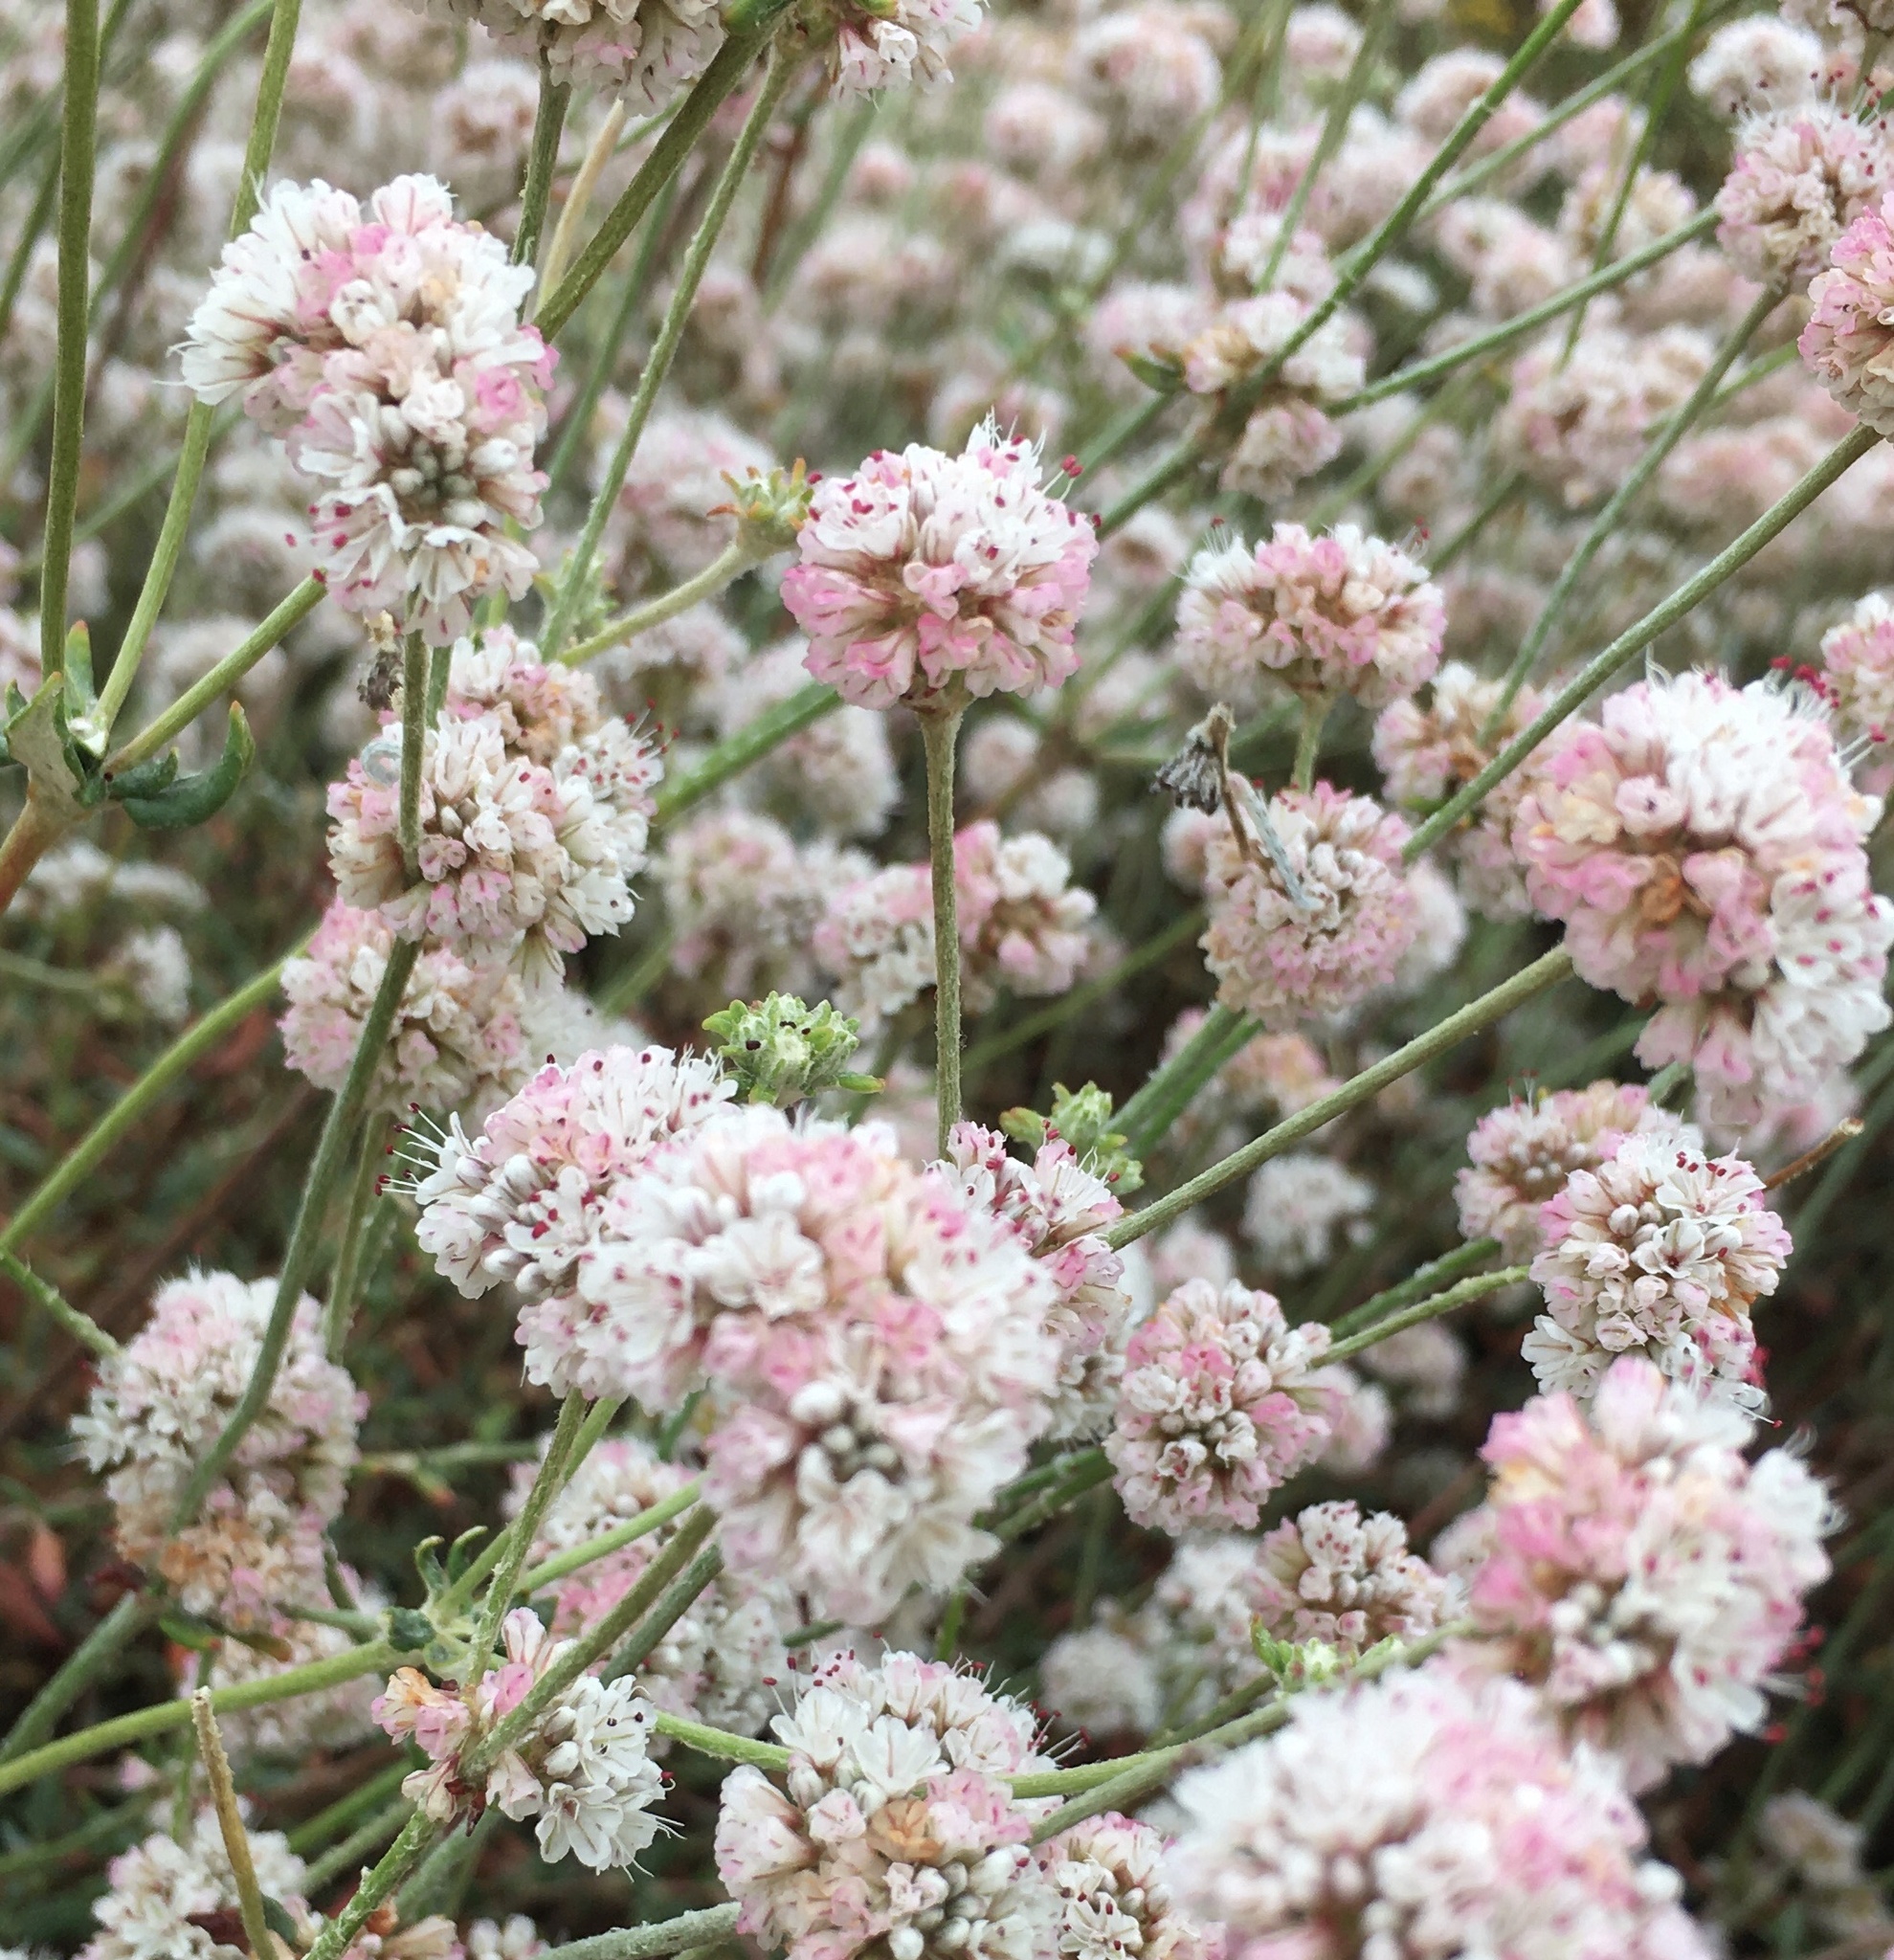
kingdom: Plantae
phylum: Tracheophyta
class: Magnoliopsida
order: Caryophyllales
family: Polygonaceae
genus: Eriogonum
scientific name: Eriogonum parvifolium
